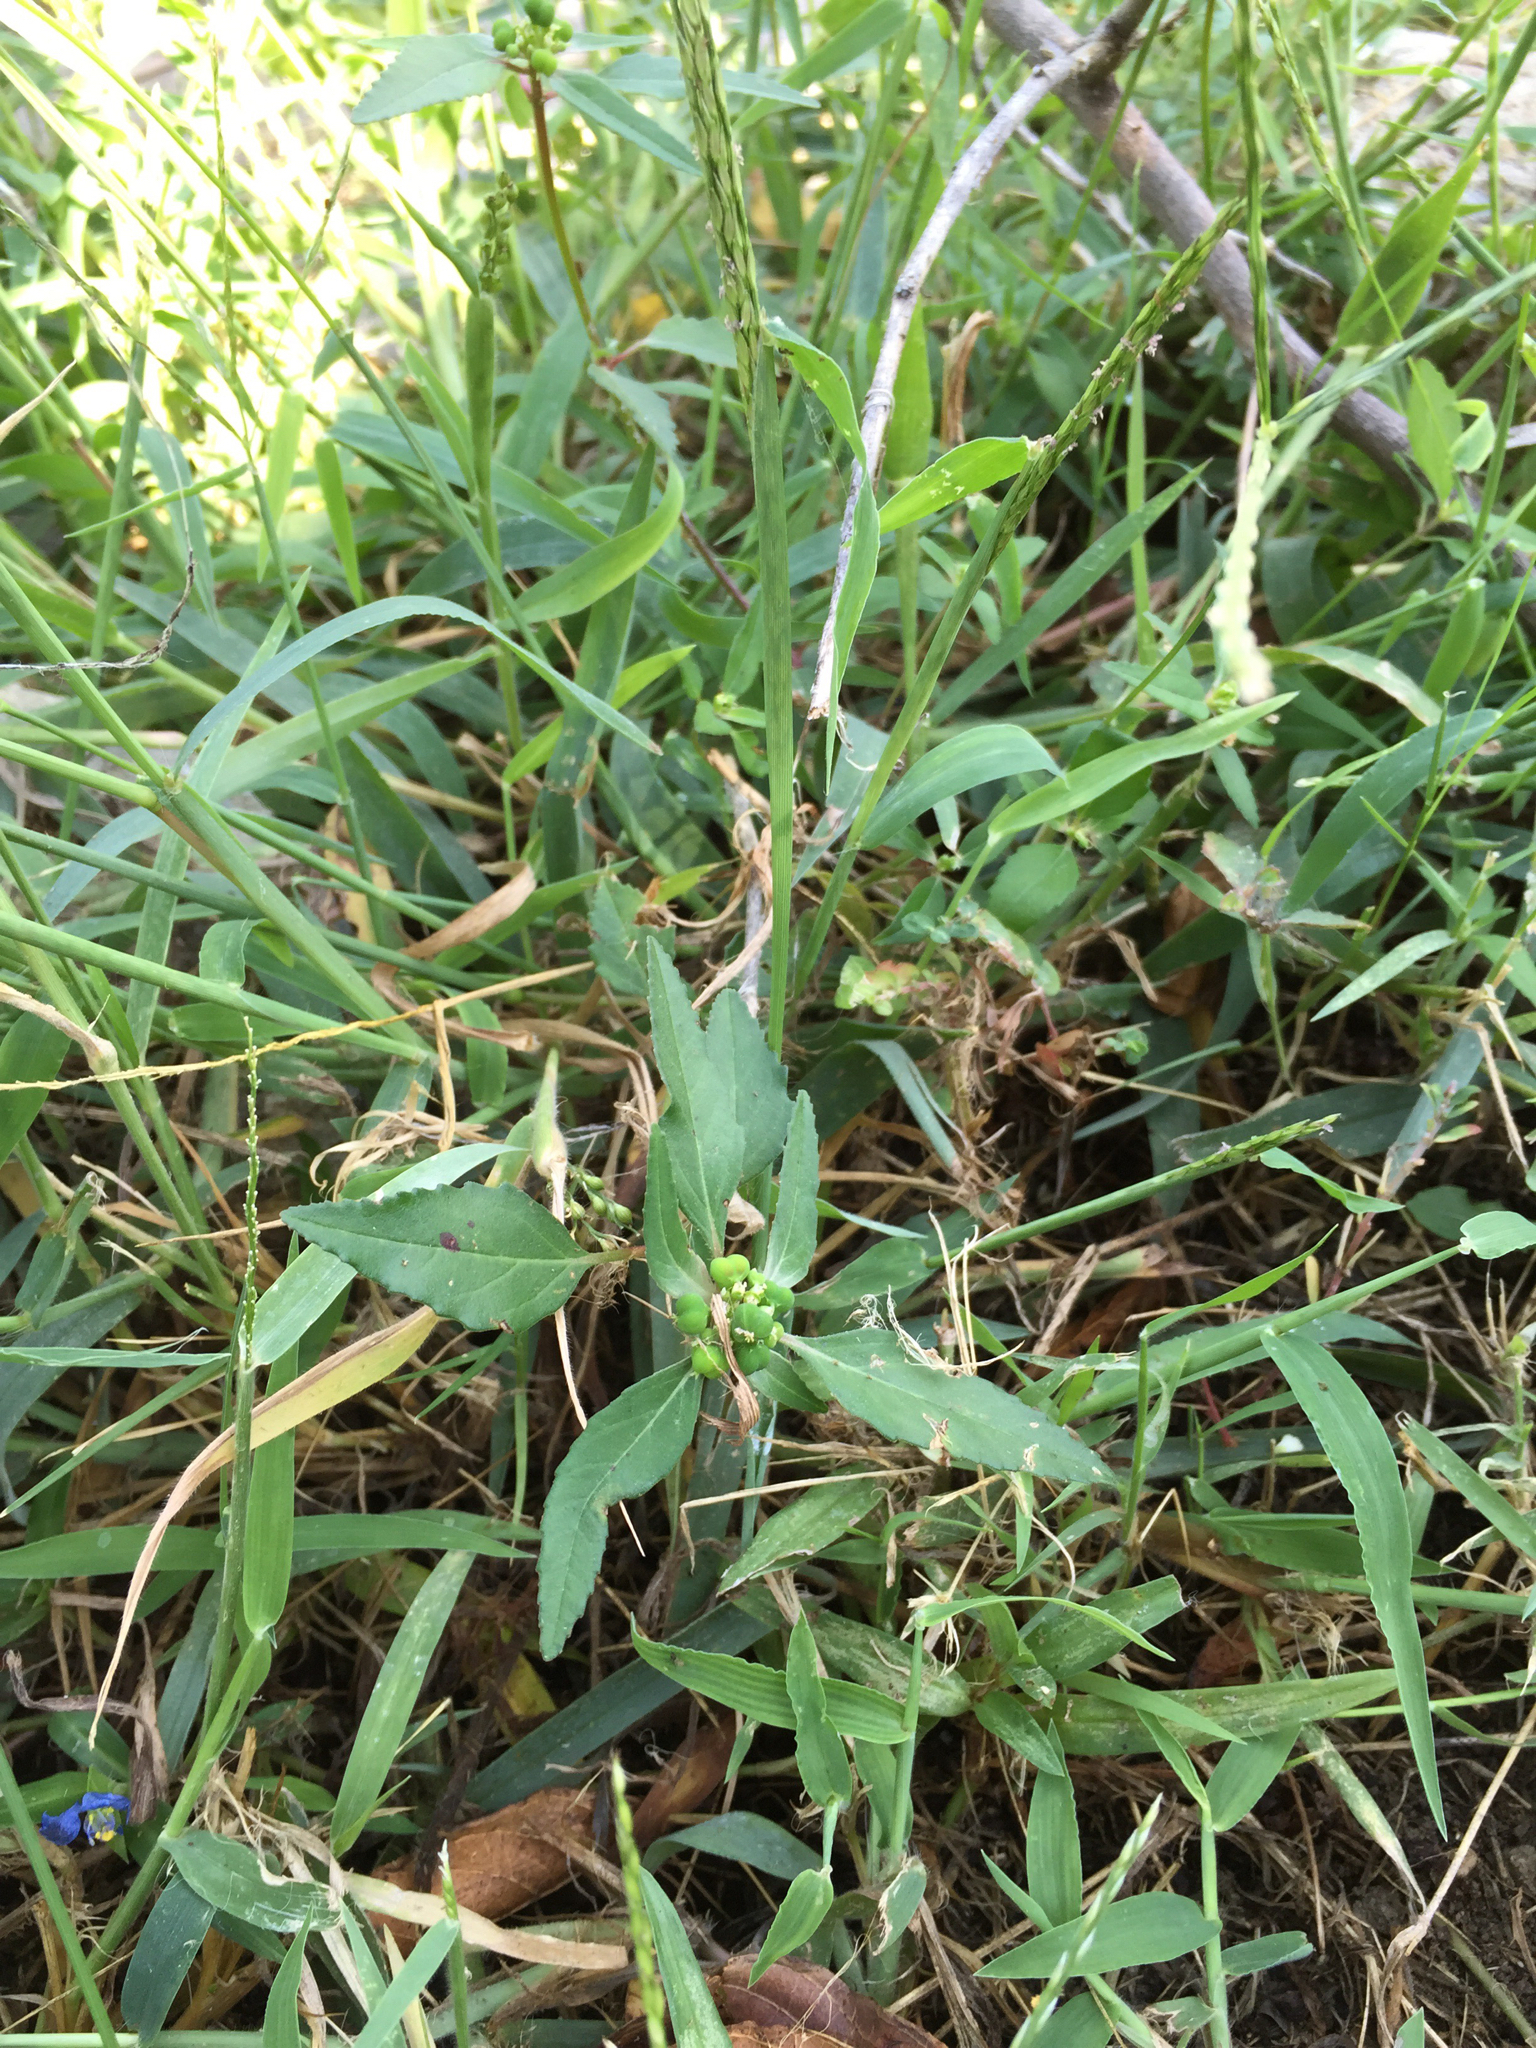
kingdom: Plantae
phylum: Tracheophyta
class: Magnoliopsida
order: Malpighiales
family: Euphorbiaceae
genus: Euphorbia
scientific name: Euphorbia dentata
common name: Dentate spurge
